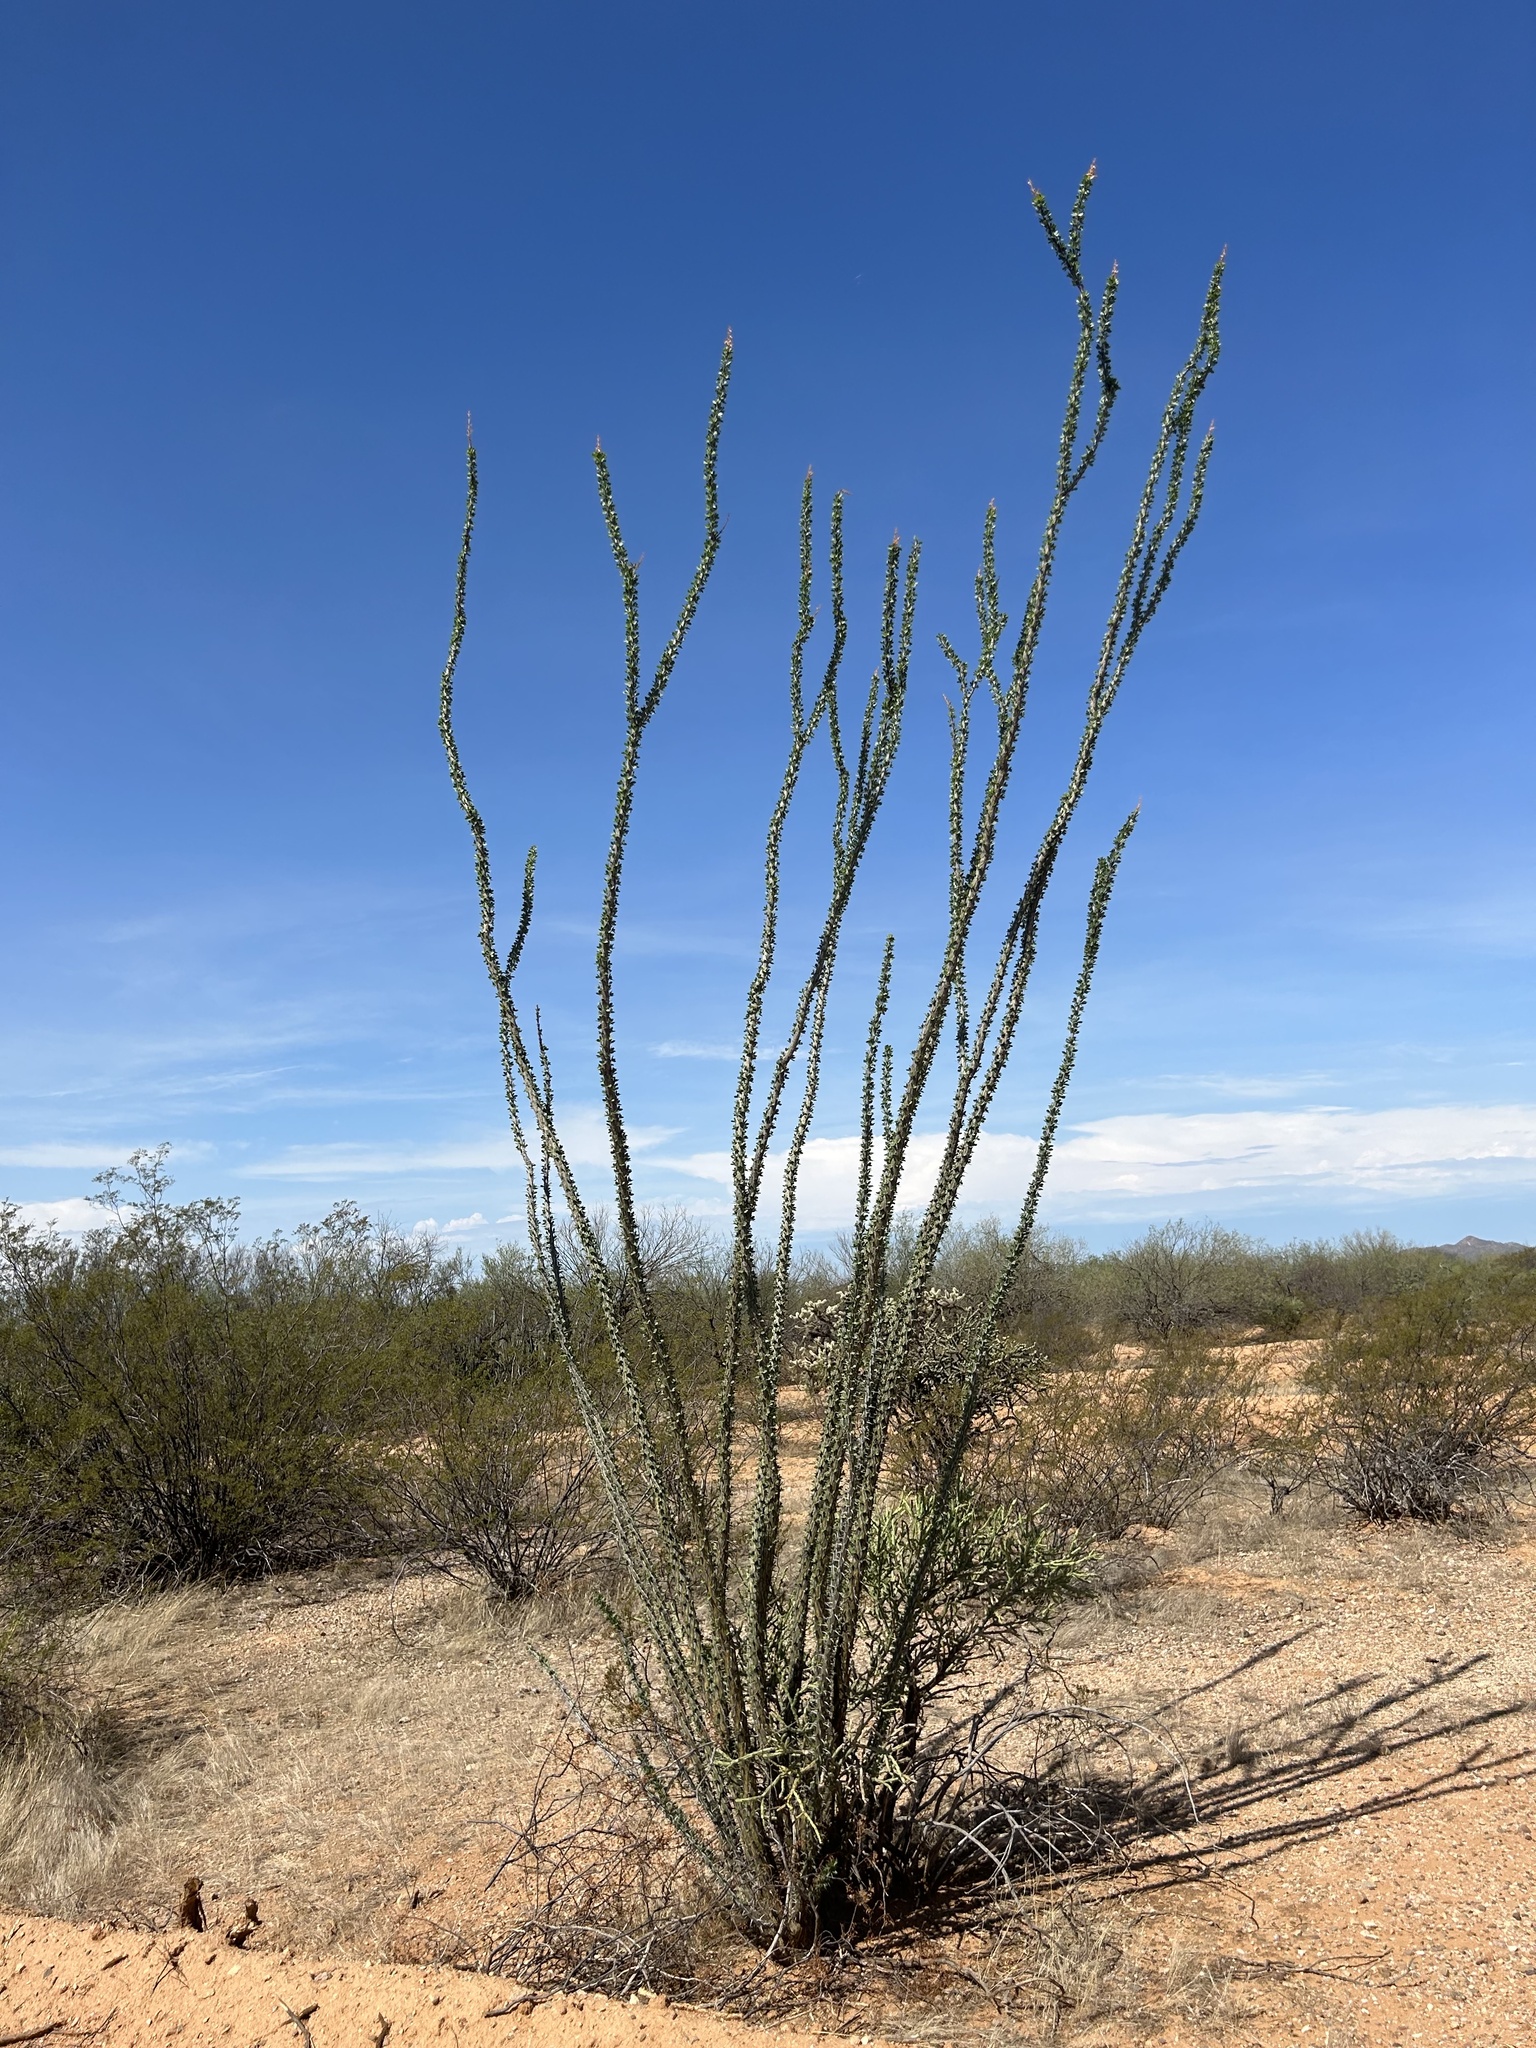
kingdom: Plantae
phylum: Tracheophyta
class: Magnoliopsida
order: Ericales
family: Fouquieriaceae
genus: Fouquieria
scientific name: Fouquieria splendens
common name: Vine-cactus
